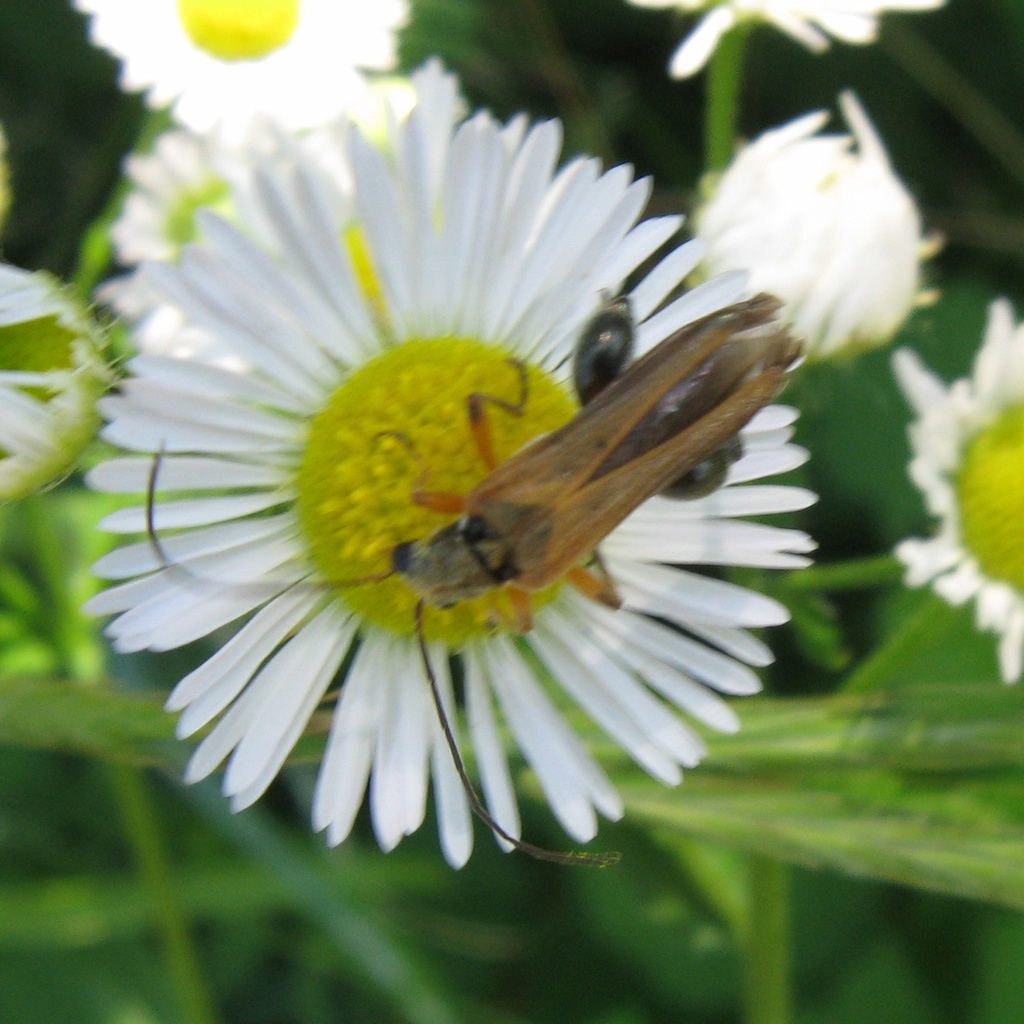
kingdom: Animalia
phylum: Arthropoda
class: Insecta
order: Coleoptera
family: Oedemeridae
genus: Oedemera
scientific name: Oedemera podagrariae
